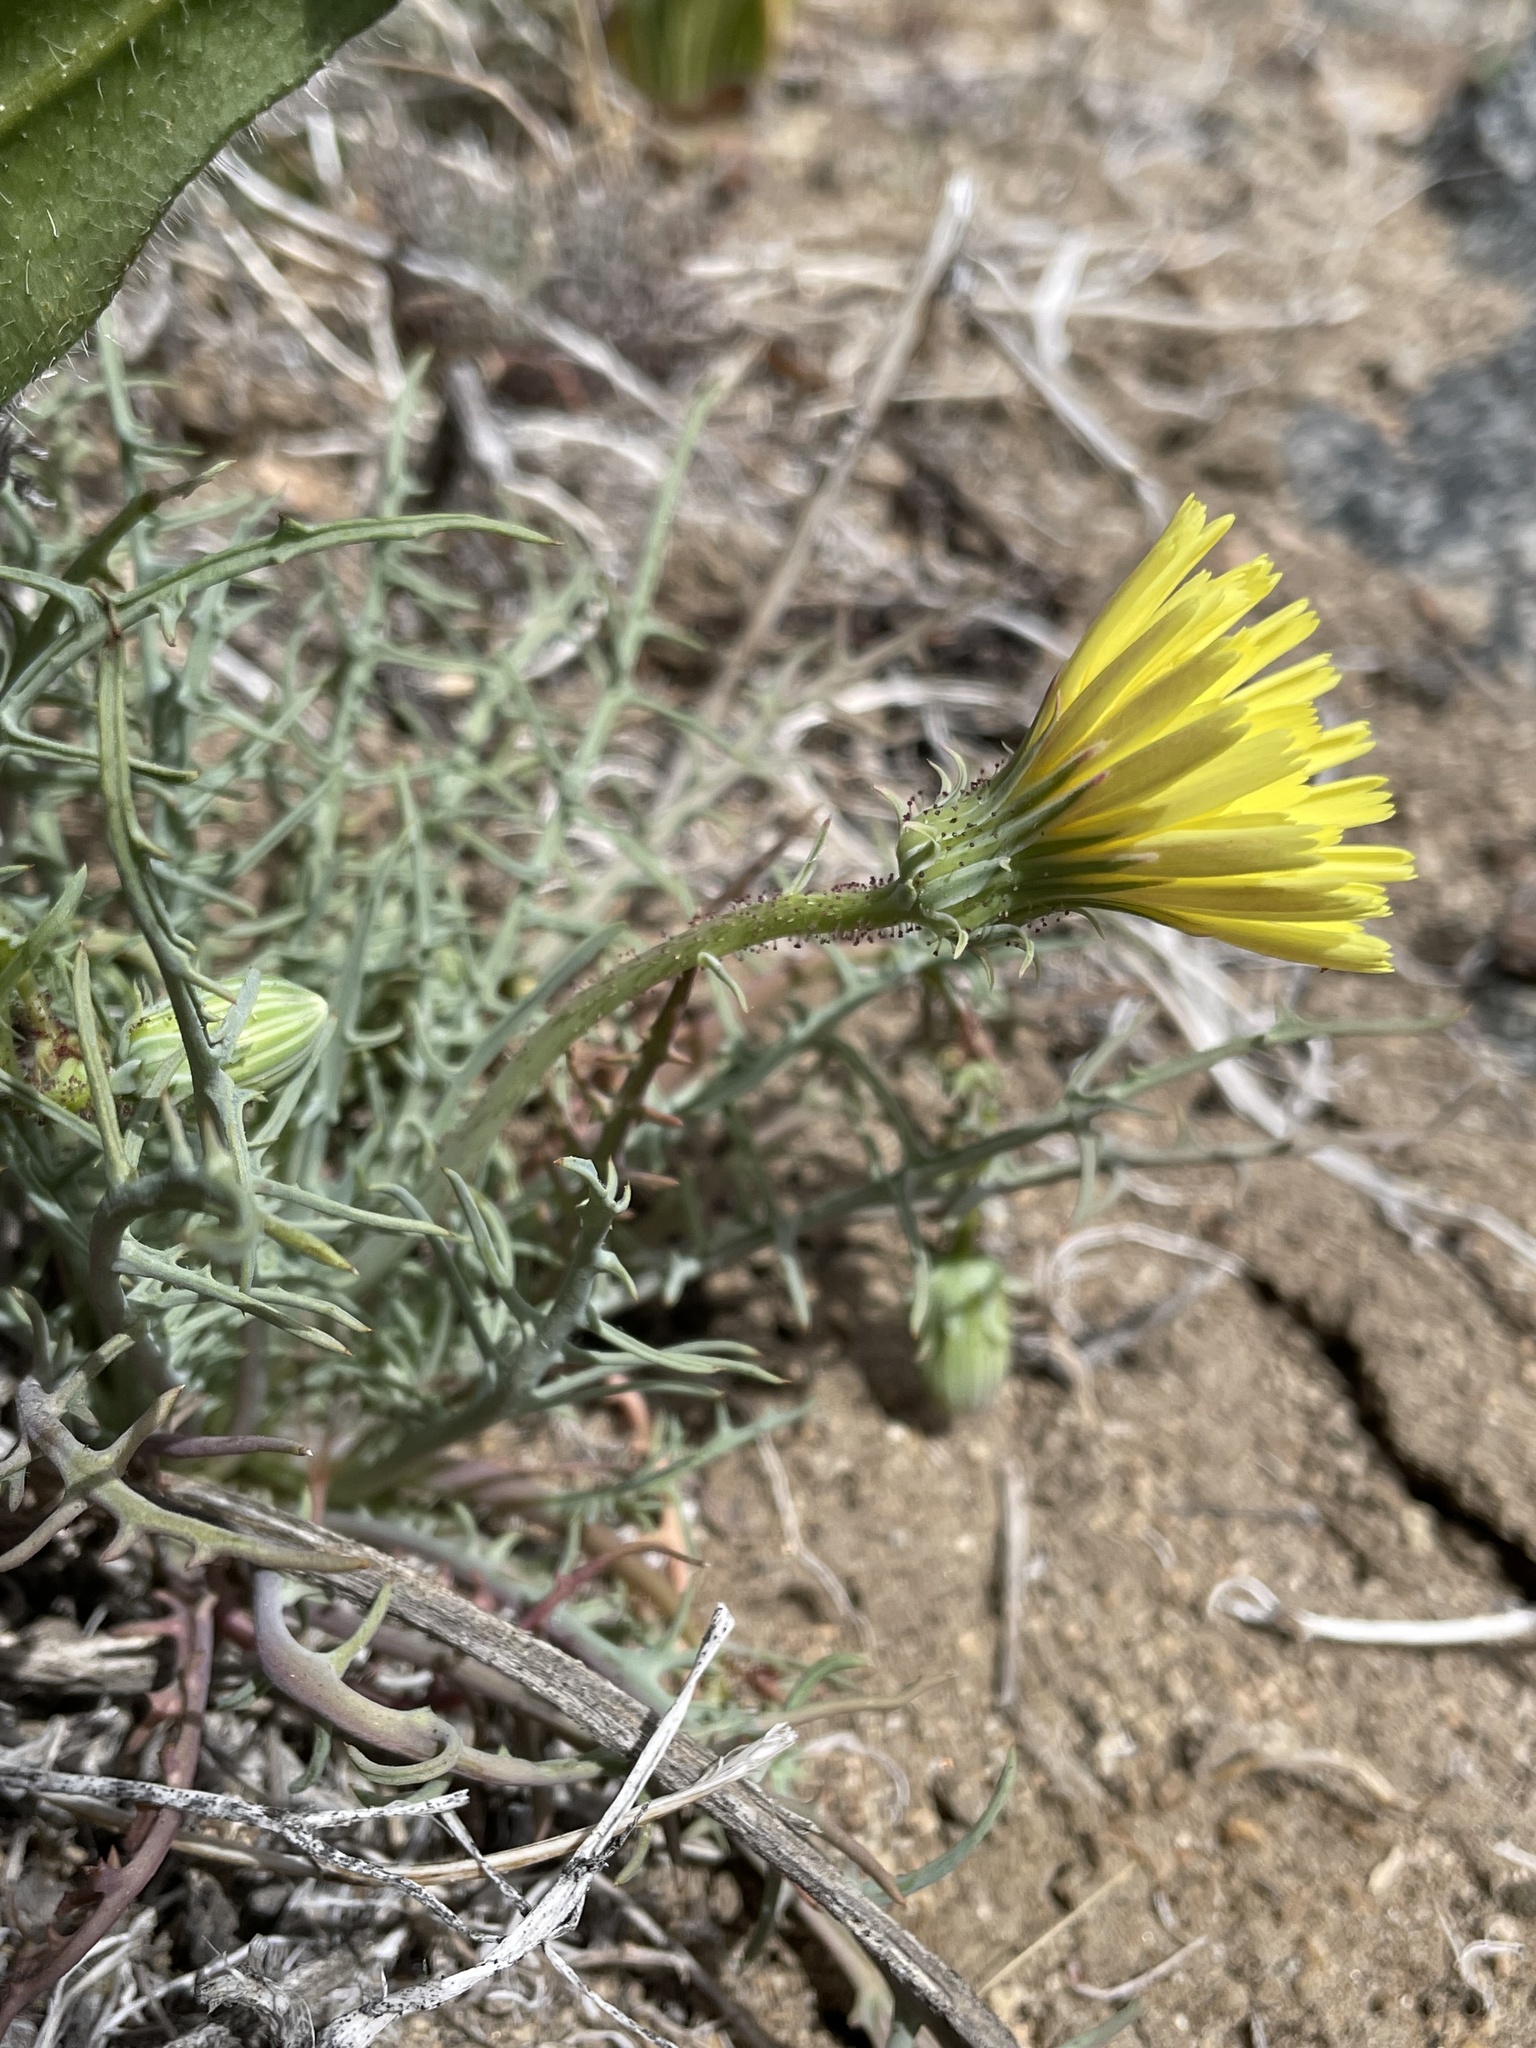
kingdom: Plantae
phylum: Tracheophyta
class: Magnoliopsida
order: Asterales
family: Asteraceae
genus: Calycoseris
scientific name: Calycoseris parryi
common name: Yellow tackstem
